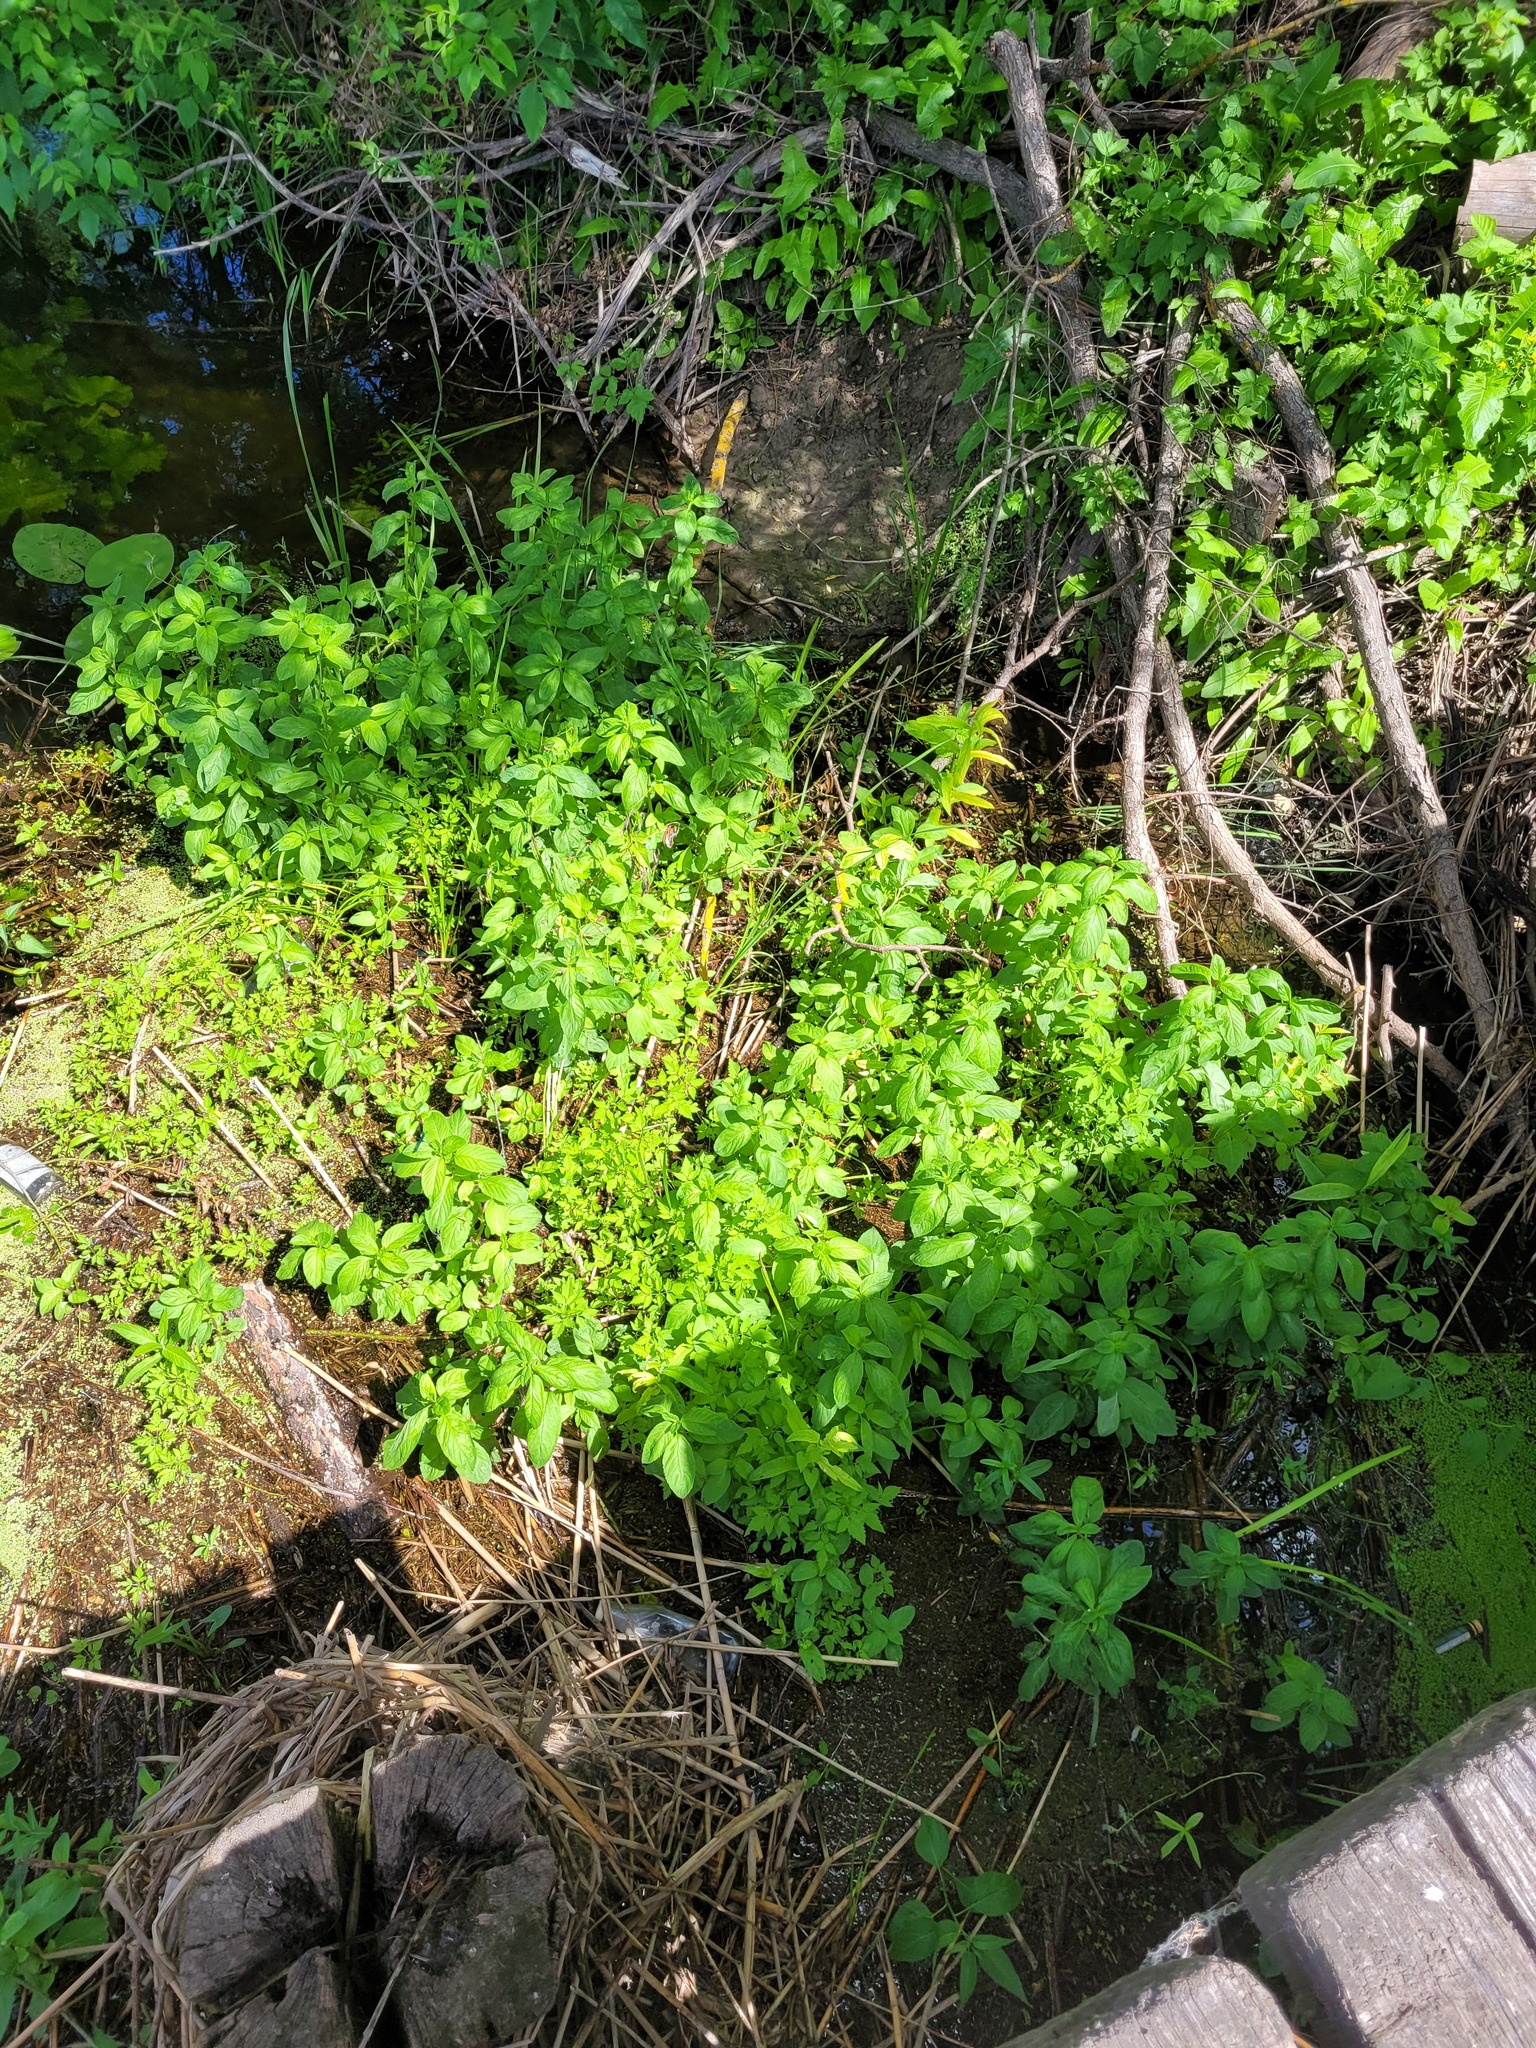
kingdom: Plantae
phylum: Tracheophyta
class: Magnoliopsida
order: Lamiales
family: Lamiaceae
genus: Mentha
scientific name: Mentha aquatica
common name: Water mint
